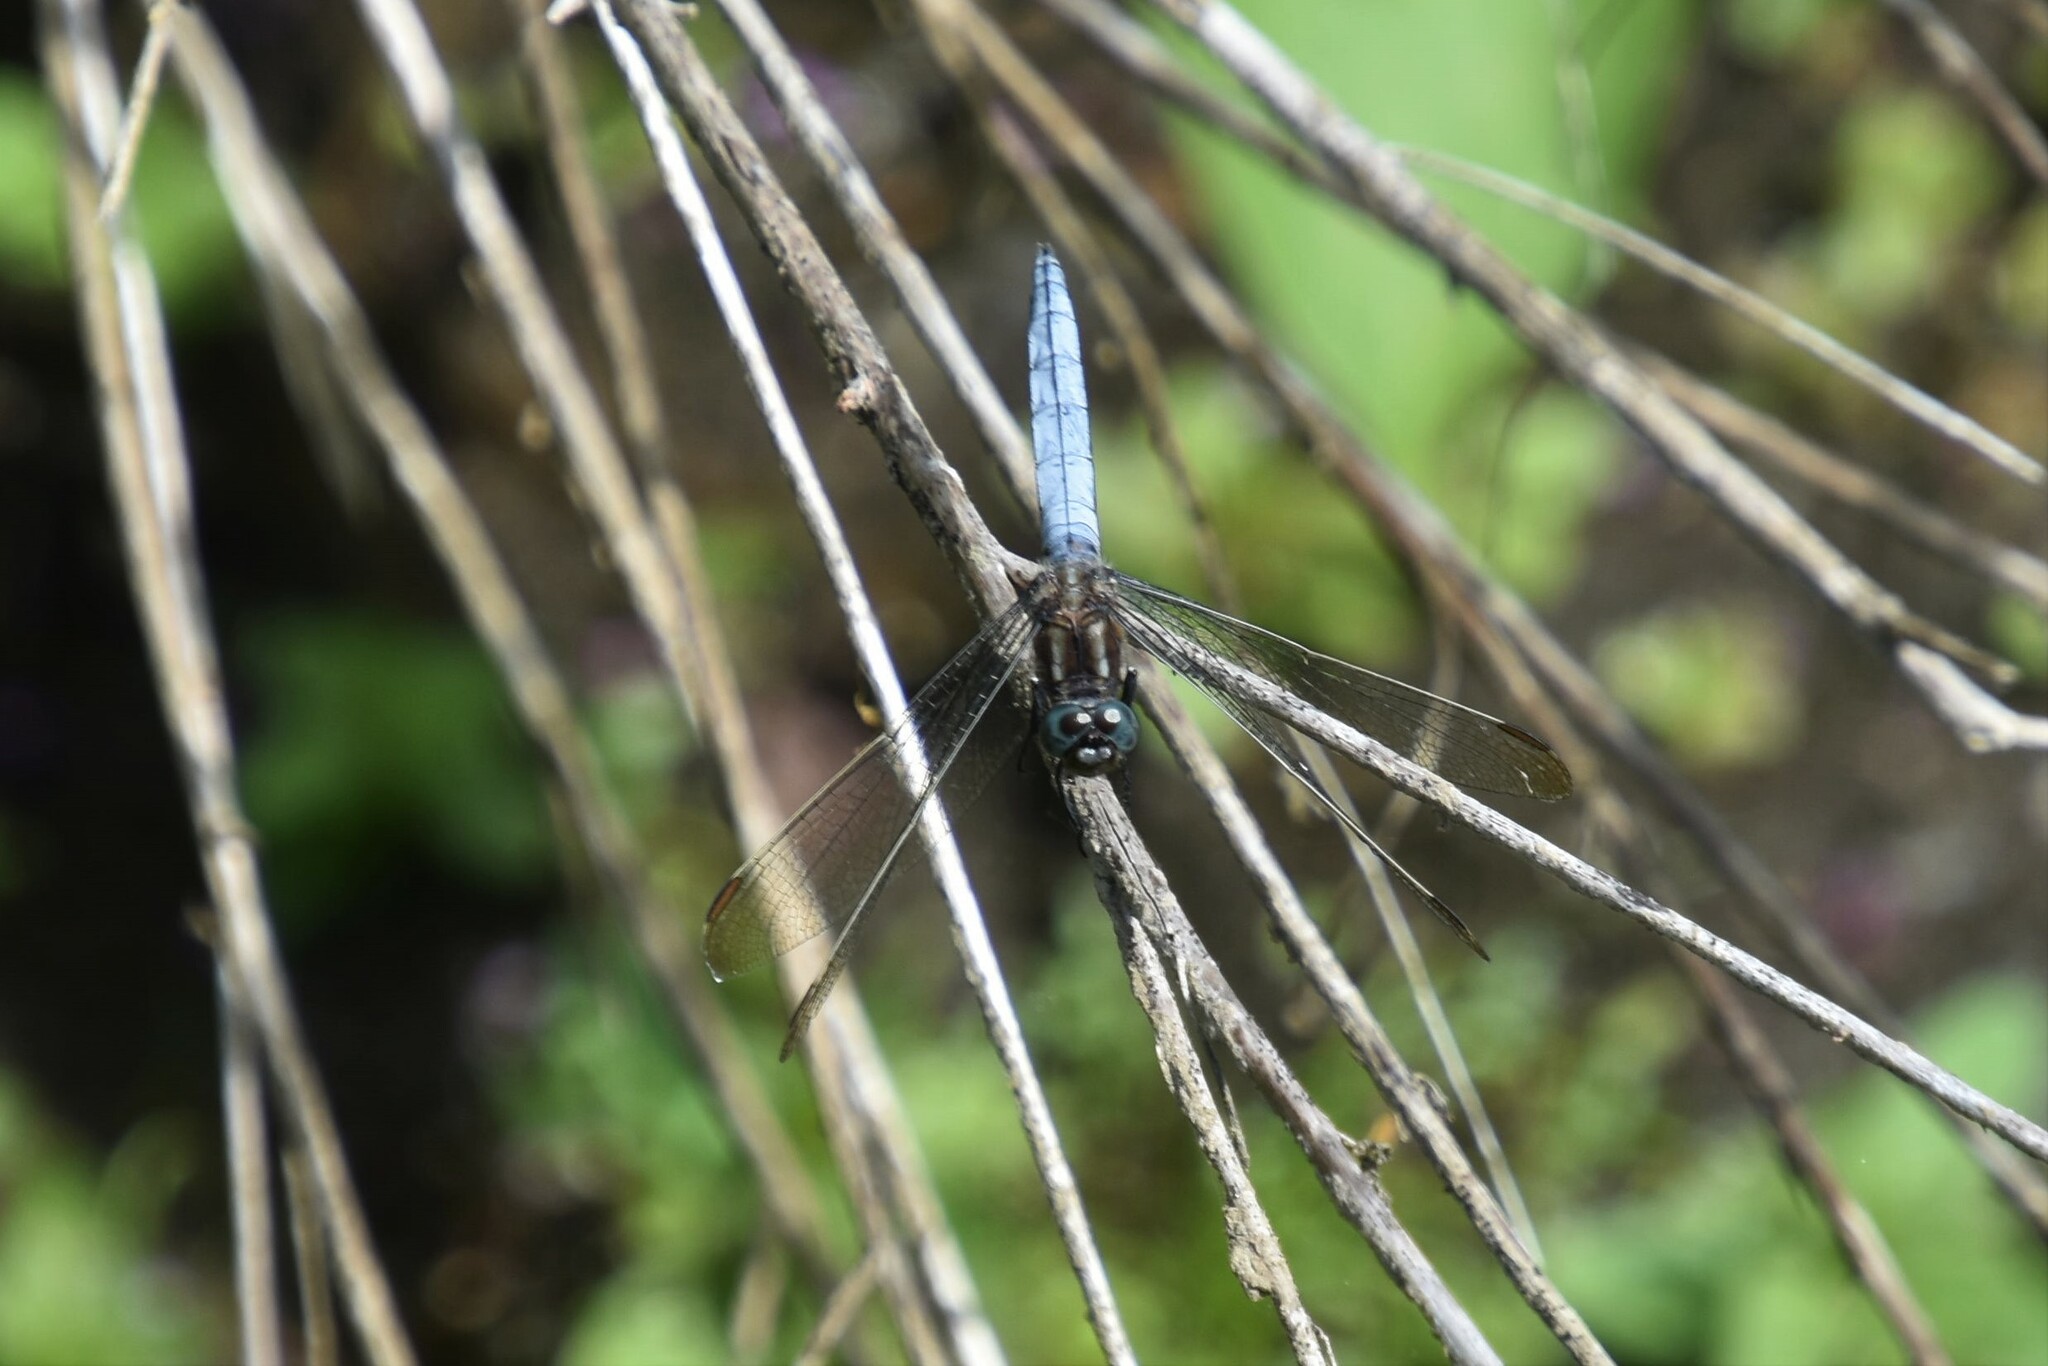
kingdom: Animalia
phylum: Arthropoda
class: Insecta
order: Odonata
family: Libellulidae
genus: Orthetrum
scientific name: Orthetrum coerulescens
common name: Keeled skimmer
